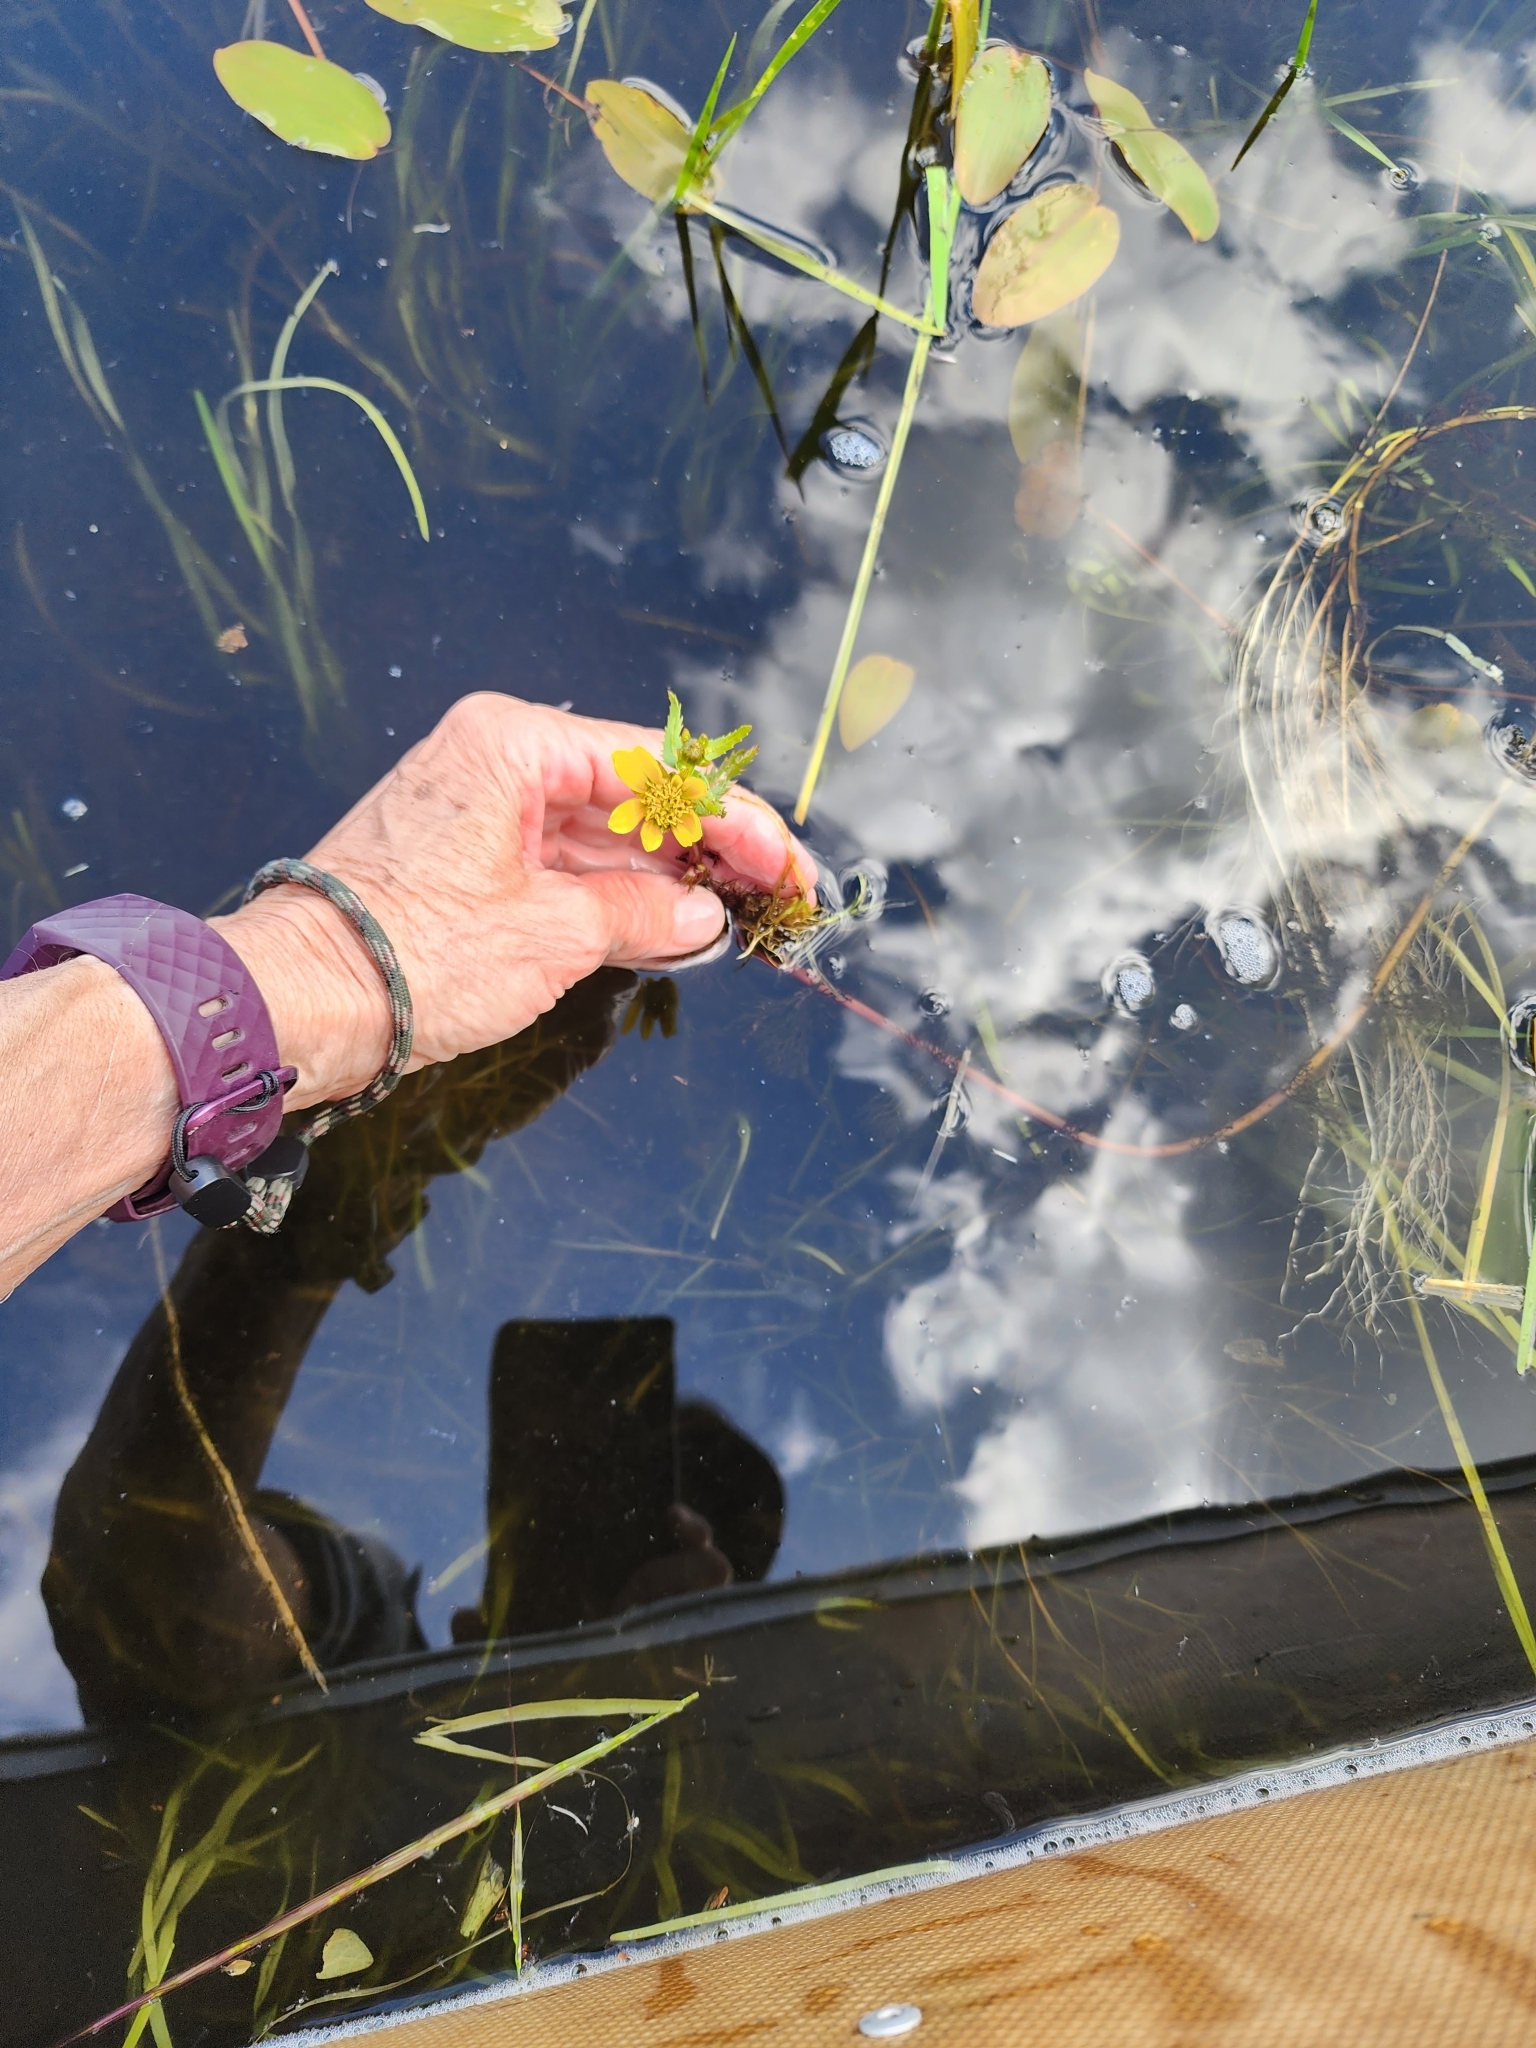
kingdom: Plantae
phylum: Tracheophyta
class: Magnoliopsida
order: Asterales
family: Asteraceae
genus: Bidens
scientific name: Bidens beckii
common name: Beck's beggarticks
